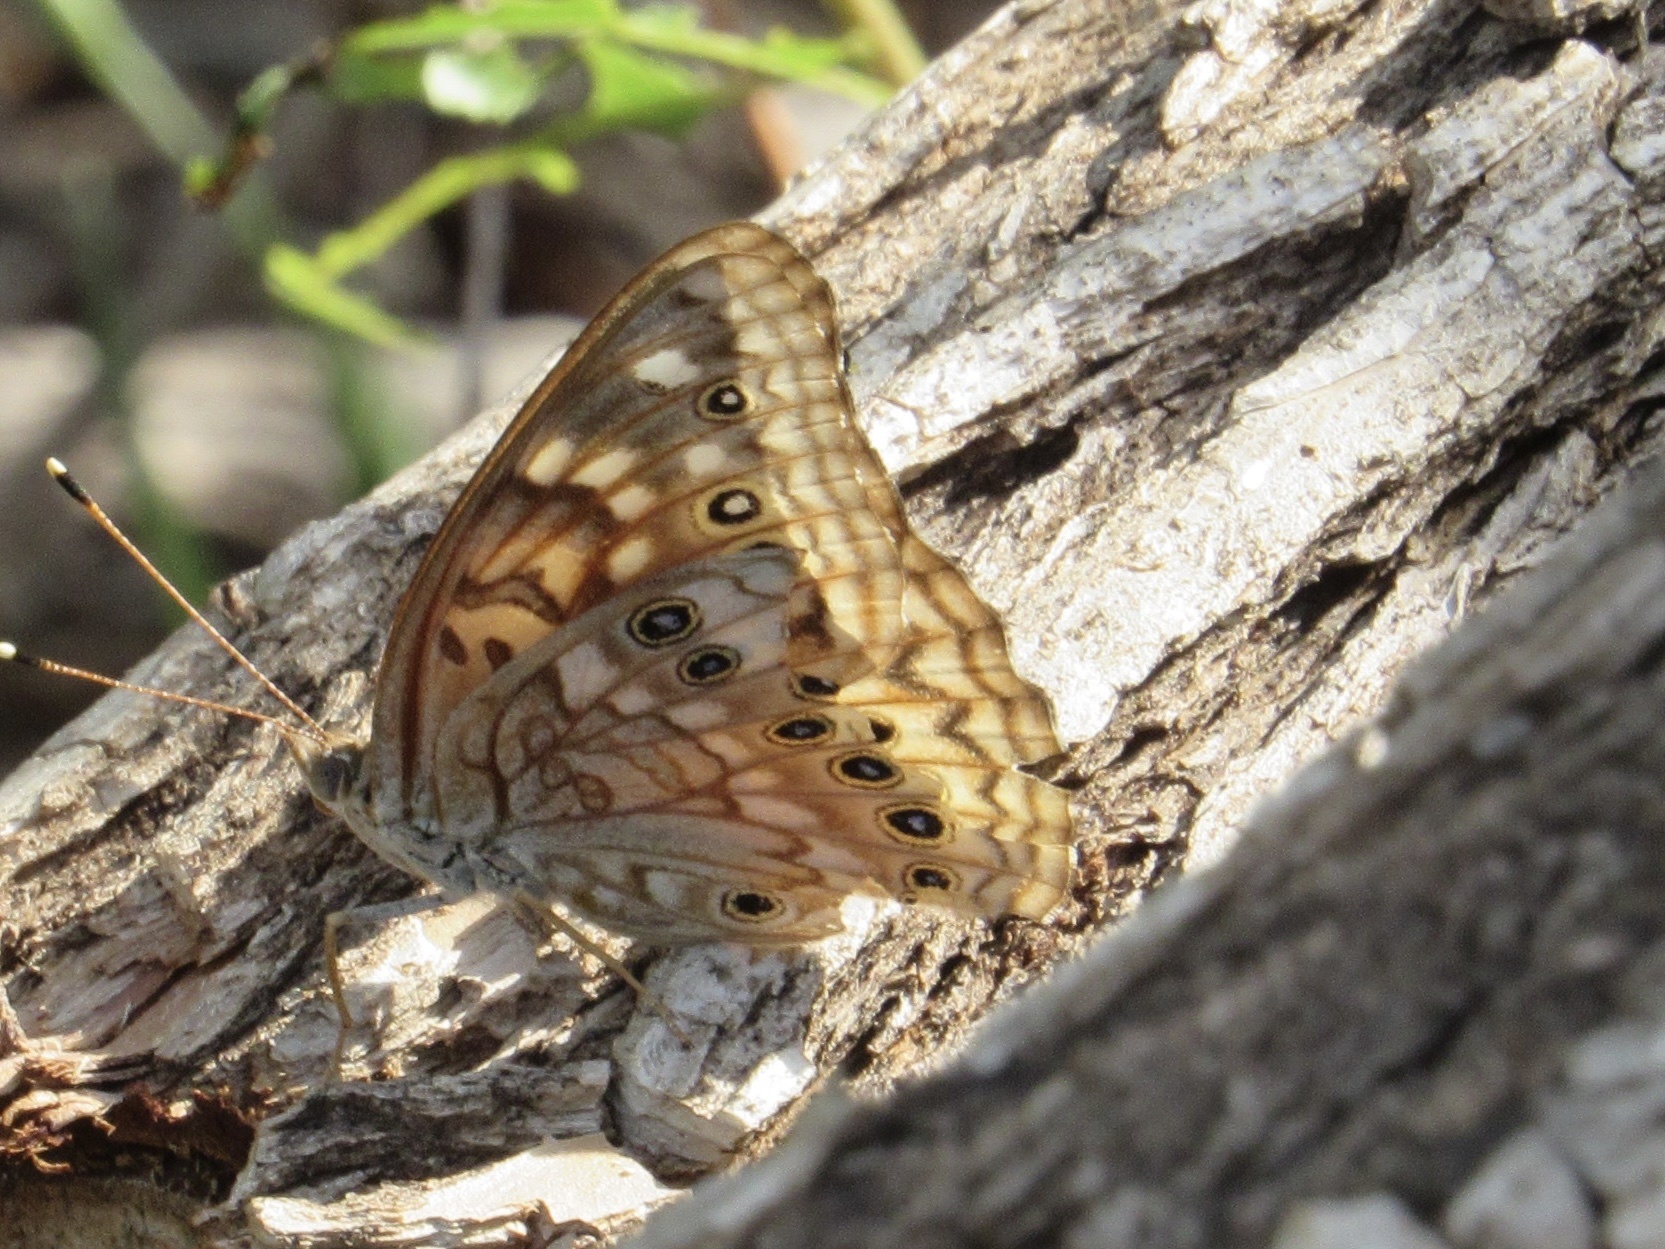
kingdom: Animalia
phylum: Arthropoda
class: Insecta
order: Lepidoptera
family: Nymphalidae
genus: Asterocampa
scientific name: Asterocampa celtis
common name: Hackberry emperor
